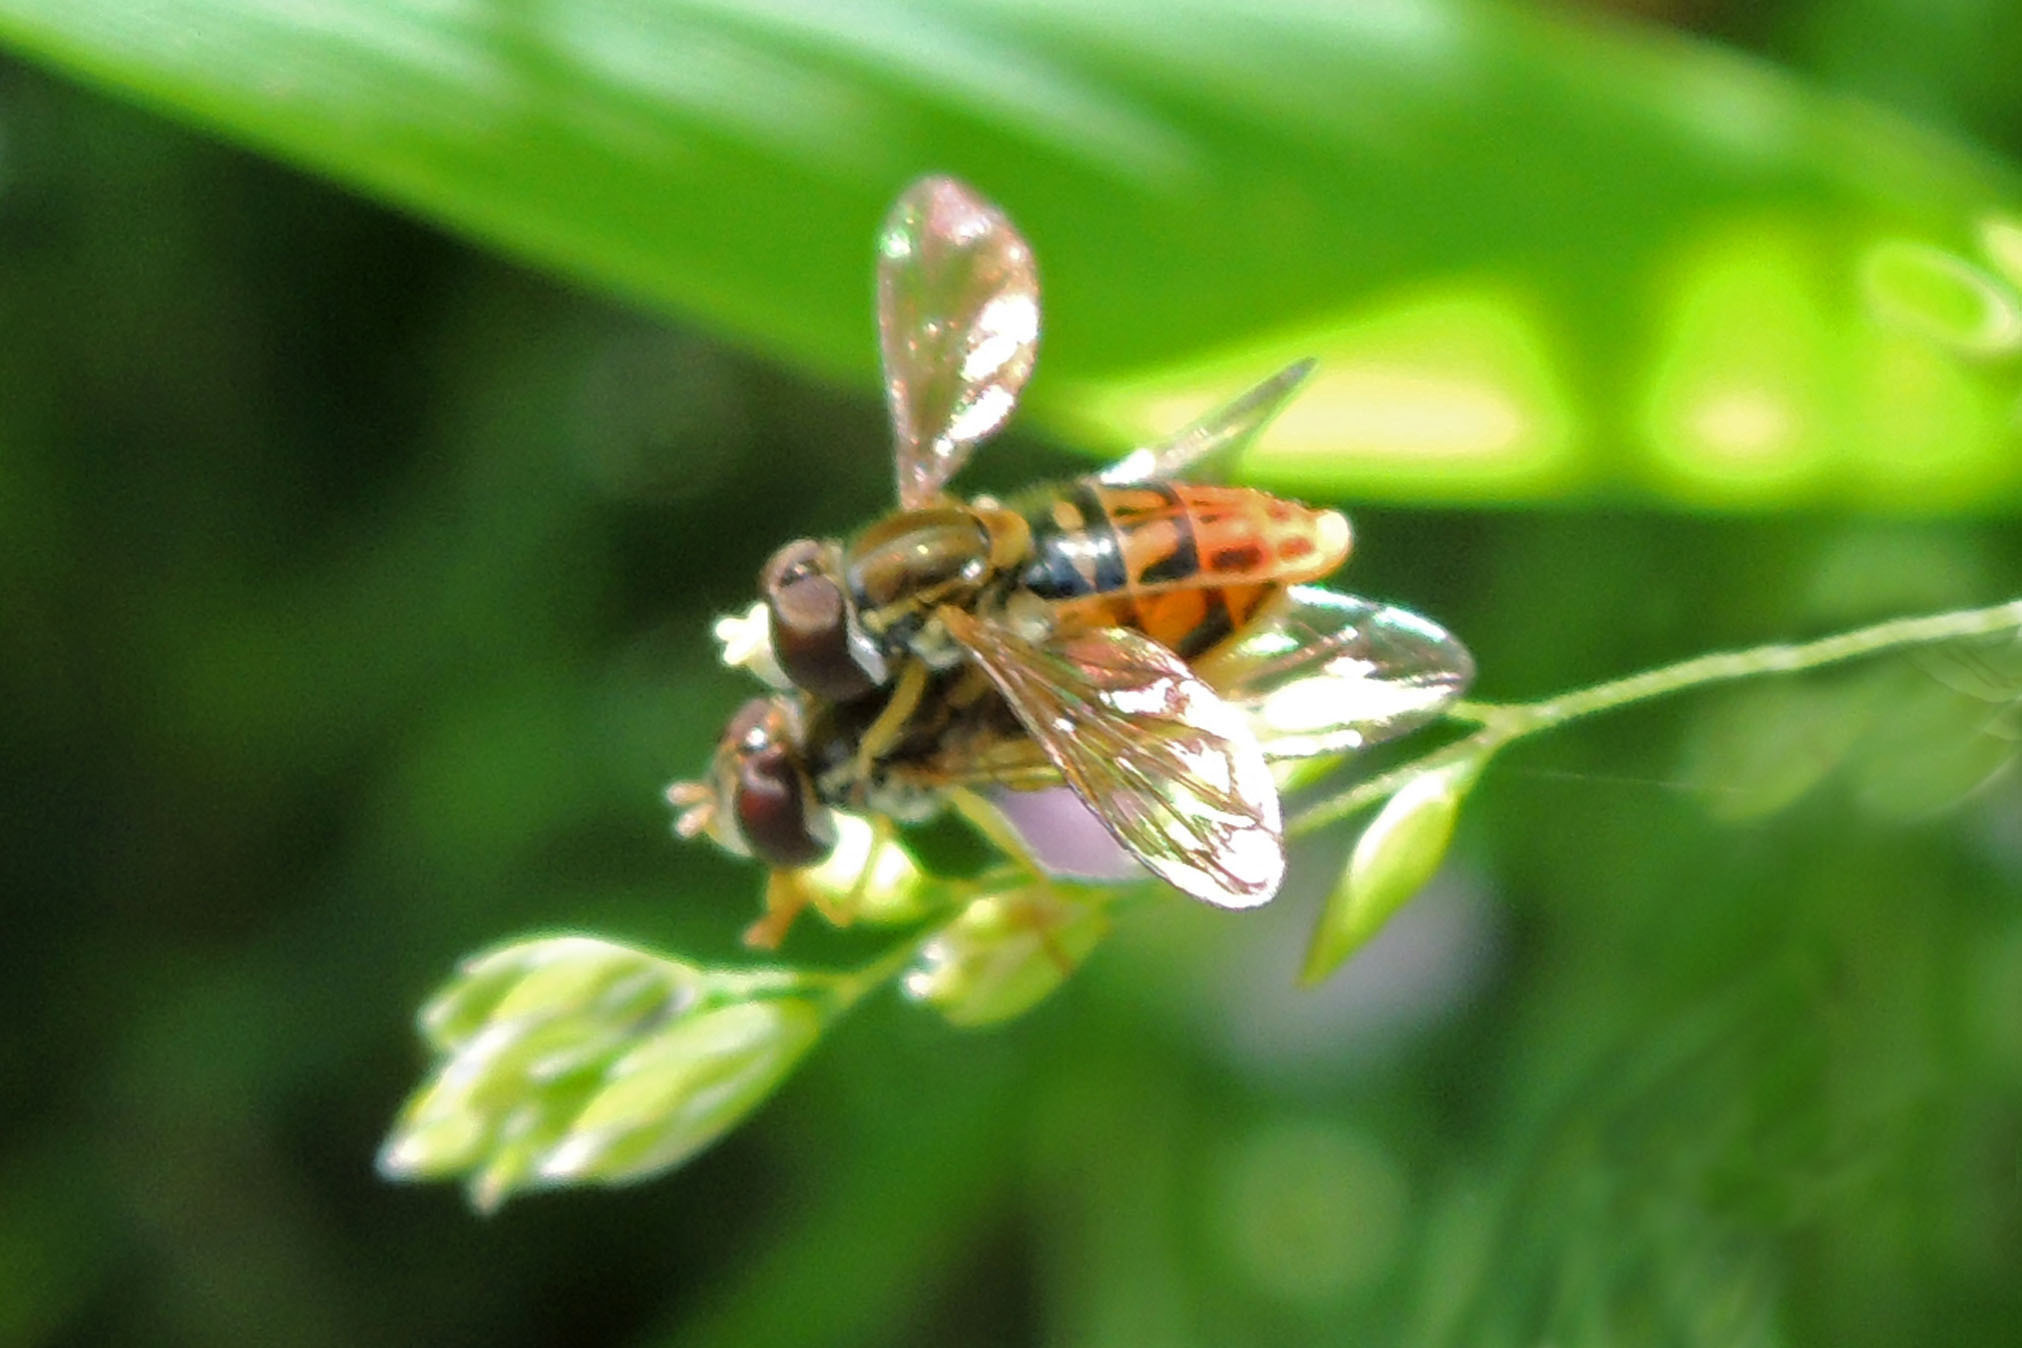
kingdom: Animalia
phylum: Arthropoda
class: Insecta
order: Diptera
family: Syrphidae
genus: Toxomerus
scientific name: Toxomerus marginatus
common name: Syrphid fly
